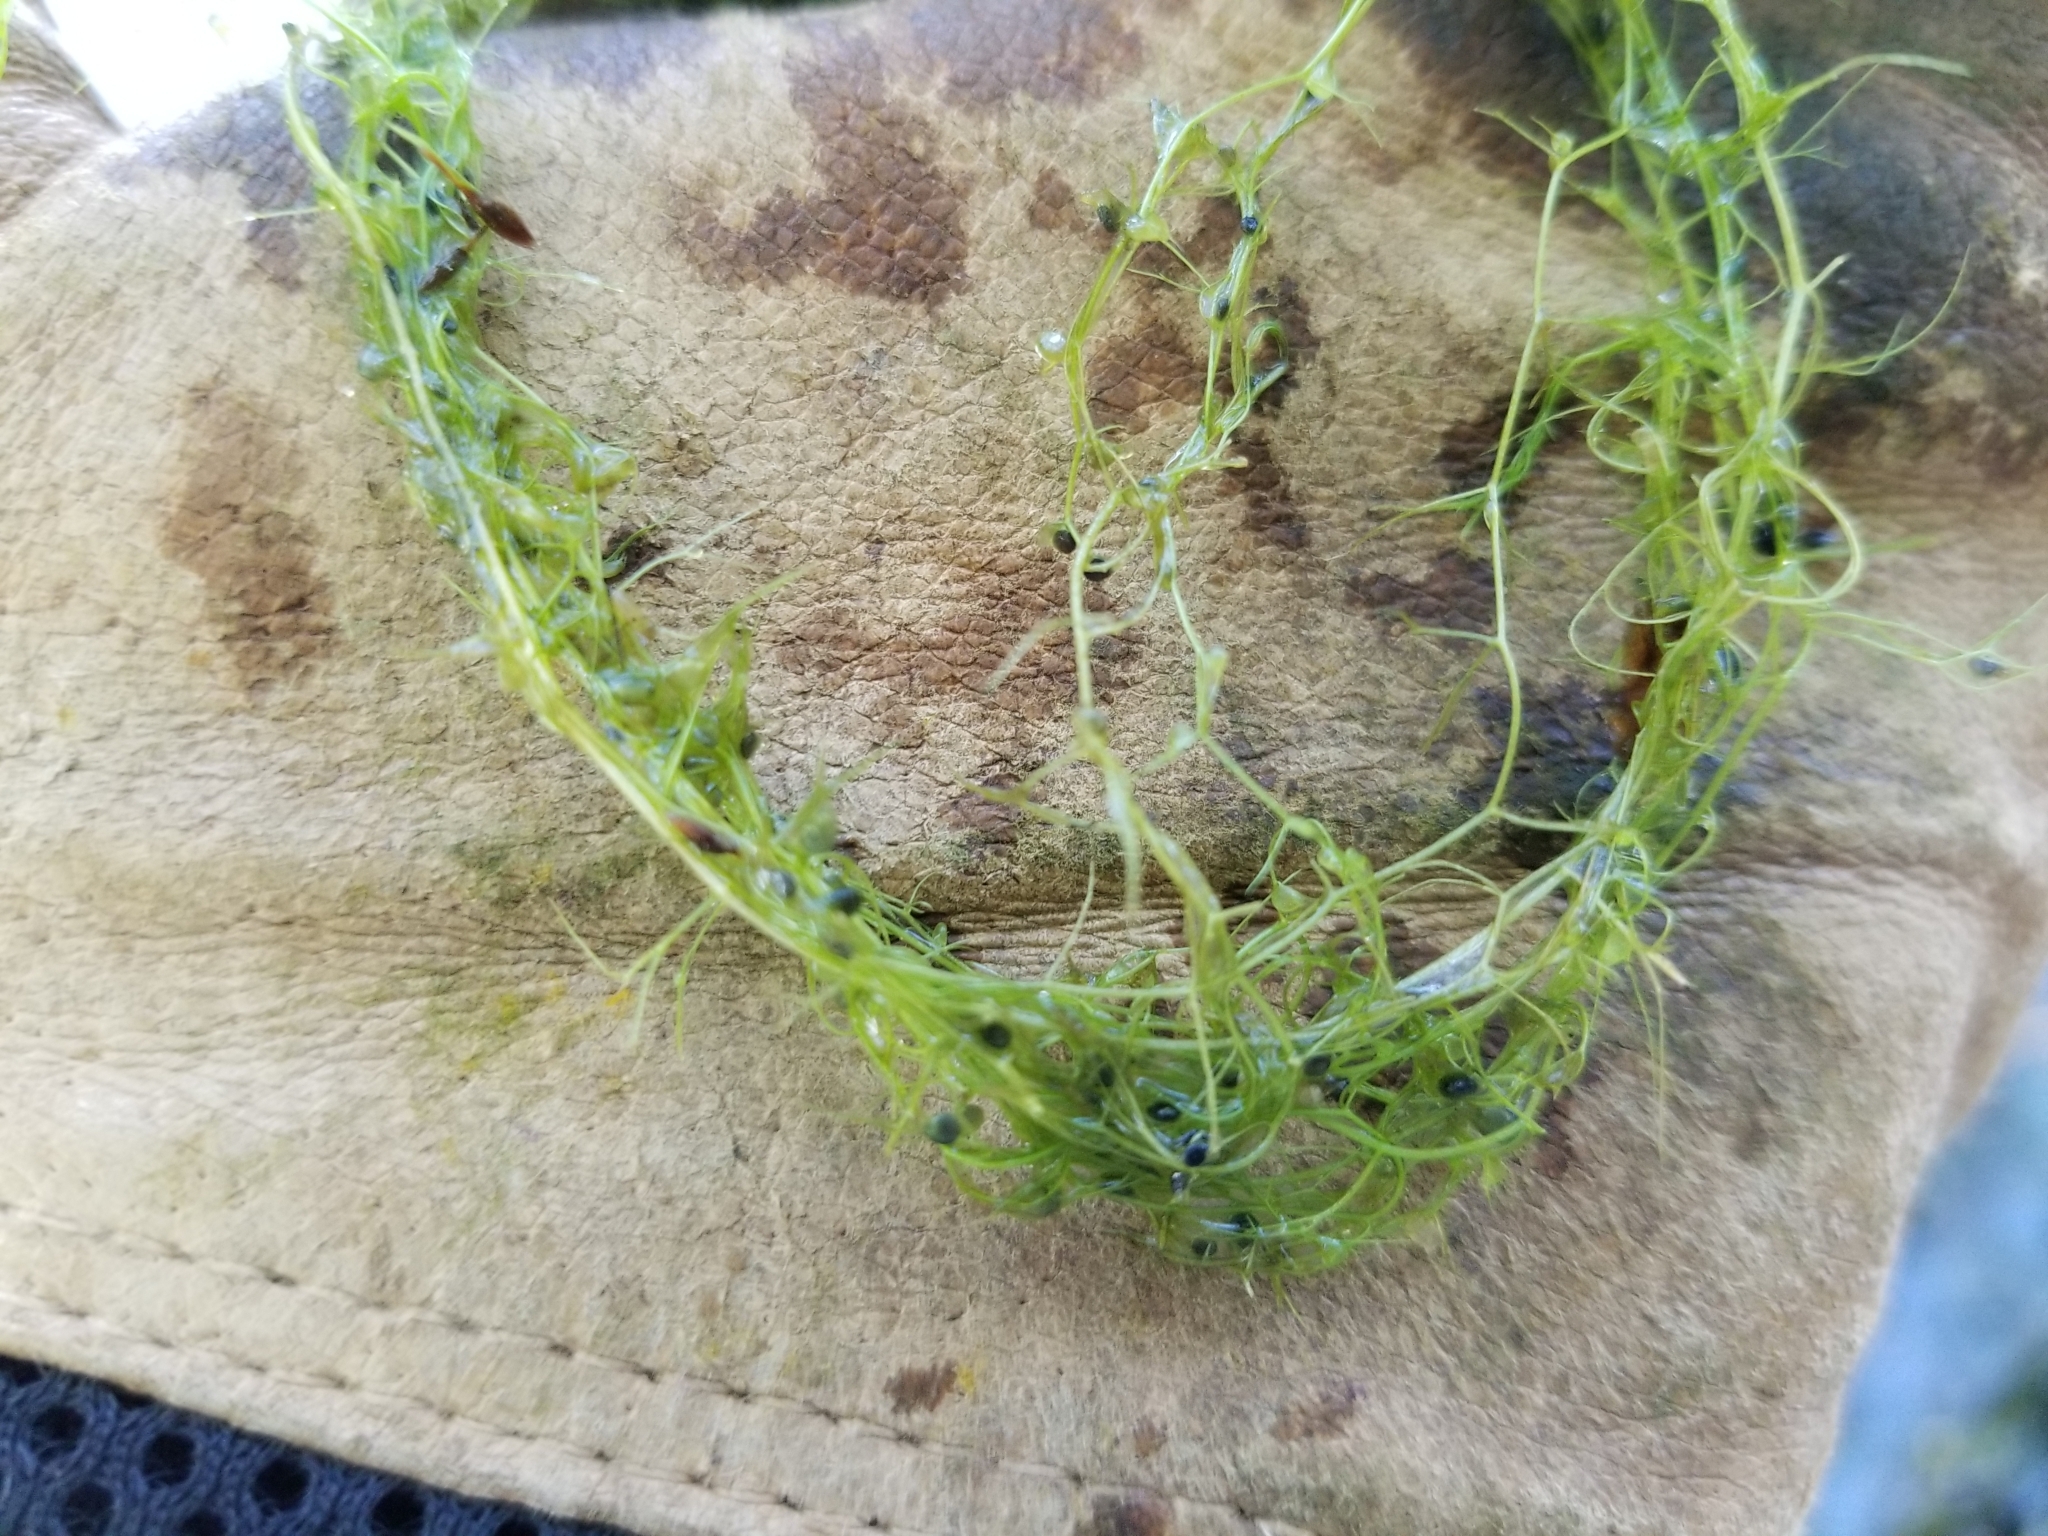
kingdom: Plantae
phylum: Tracheophyta
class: Magnoliopsida
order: Lamiales
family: Lentibulariaceae
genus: Utricularia
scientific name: Utricularia gibba
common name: Humped bladderwort
